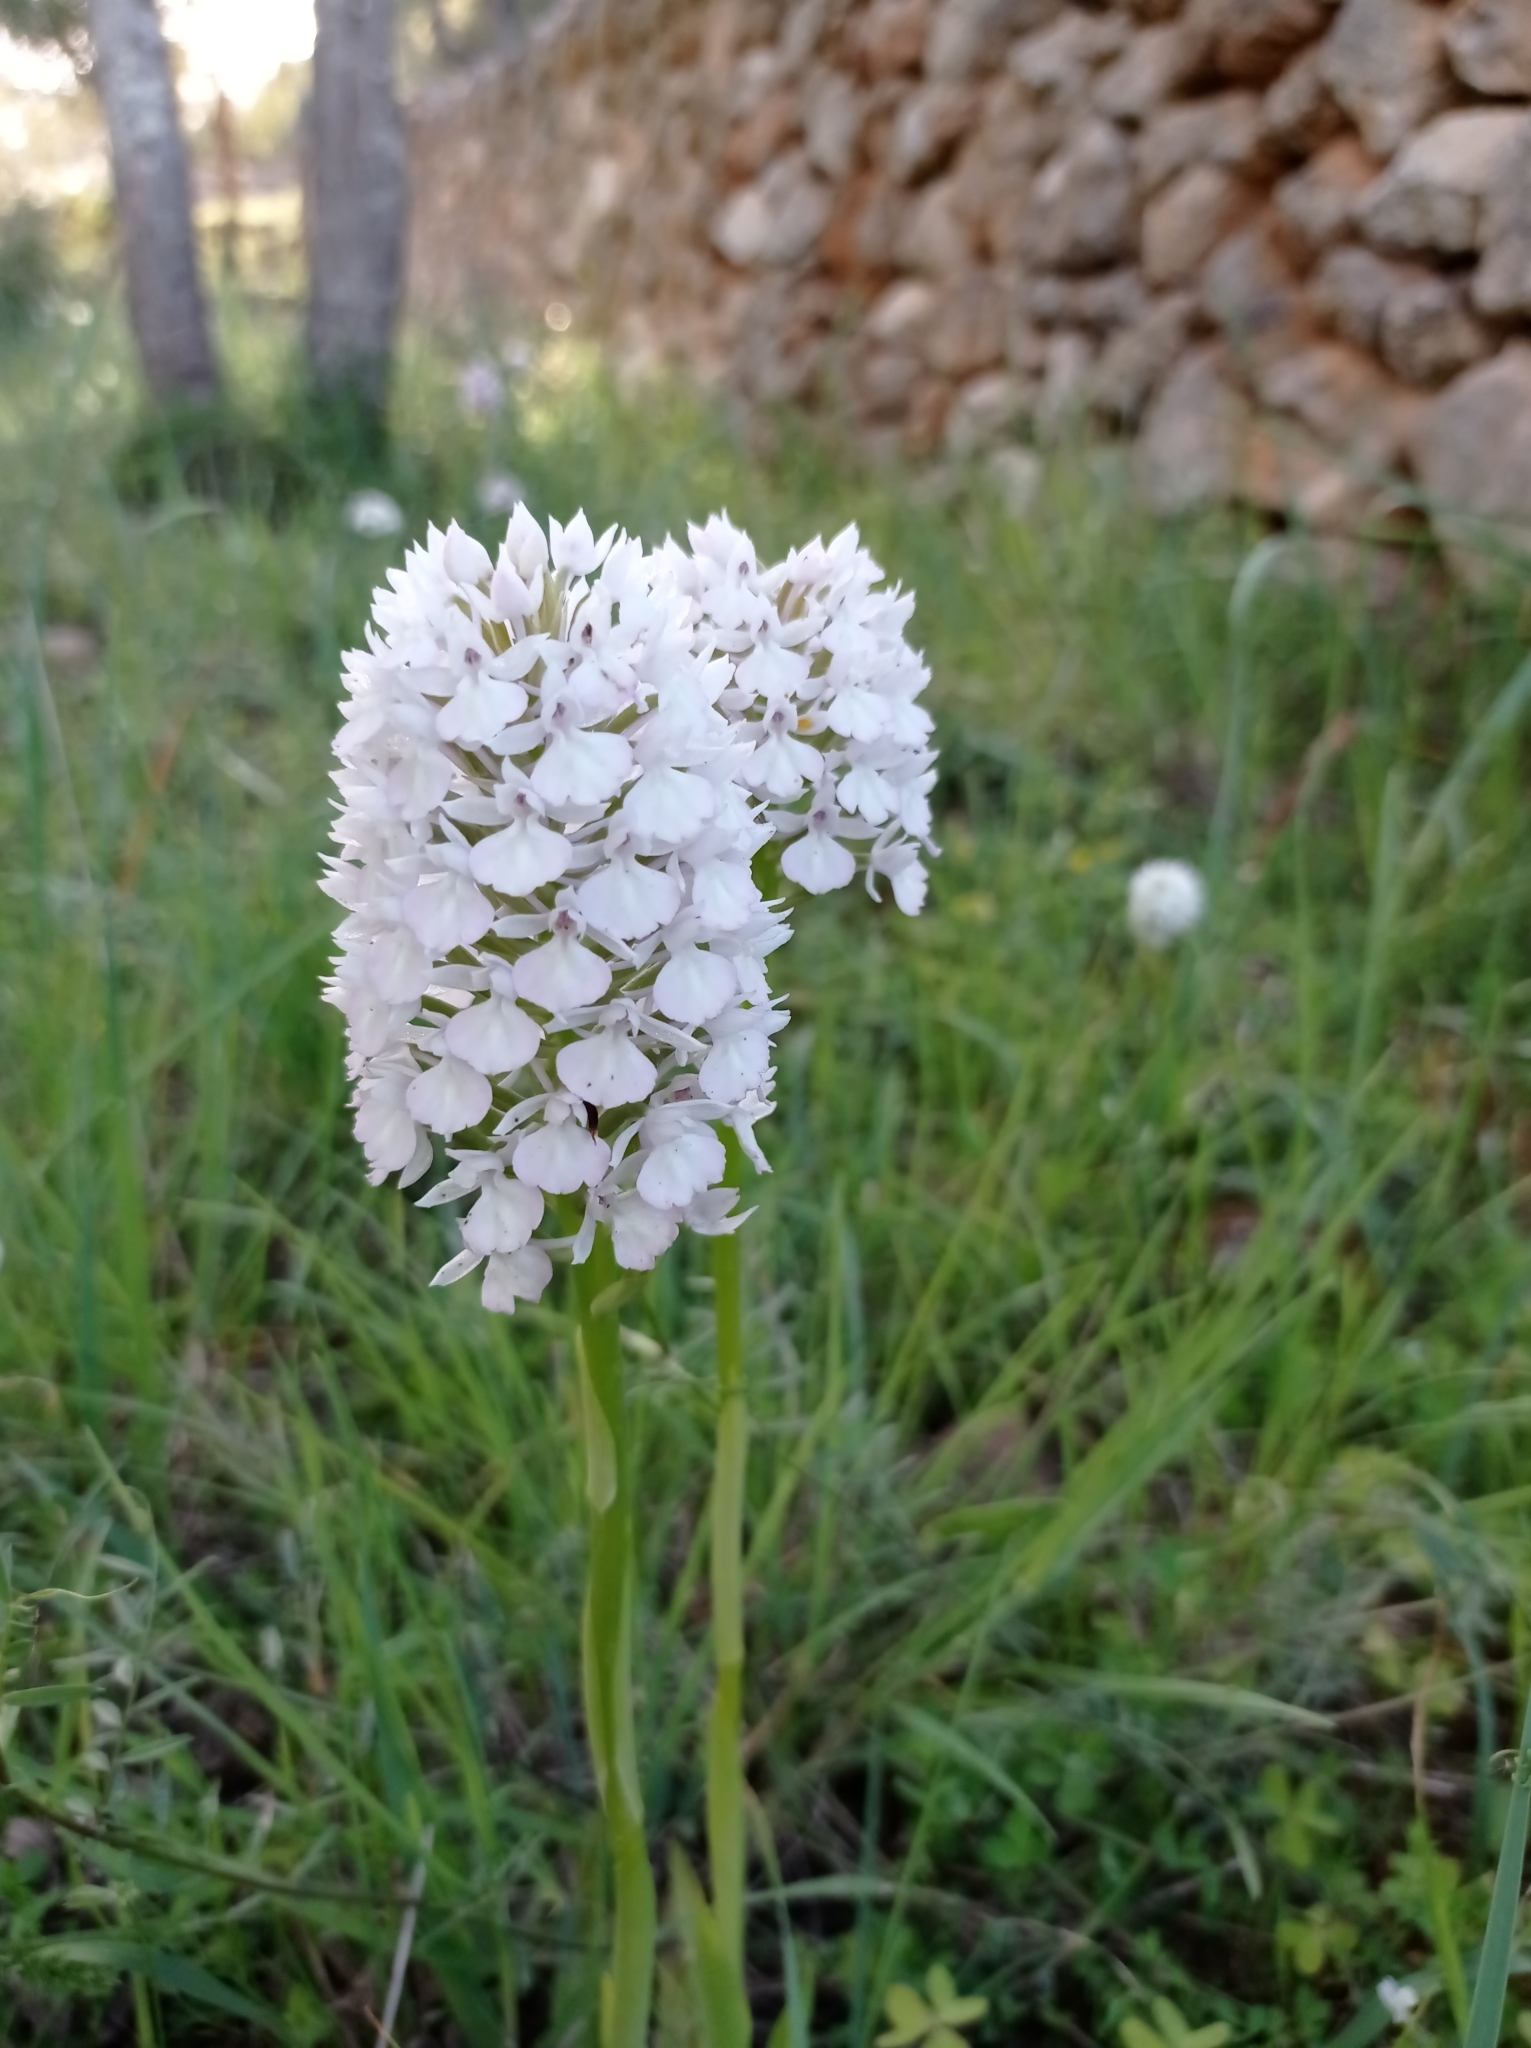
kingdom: Plantae
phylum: Tracheophyta
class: Liliopsida
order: Asparagales
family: Orchidaceae
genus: Anacamptis
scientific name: Anacamptis pyramidalis
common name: Pyramidal orchid
